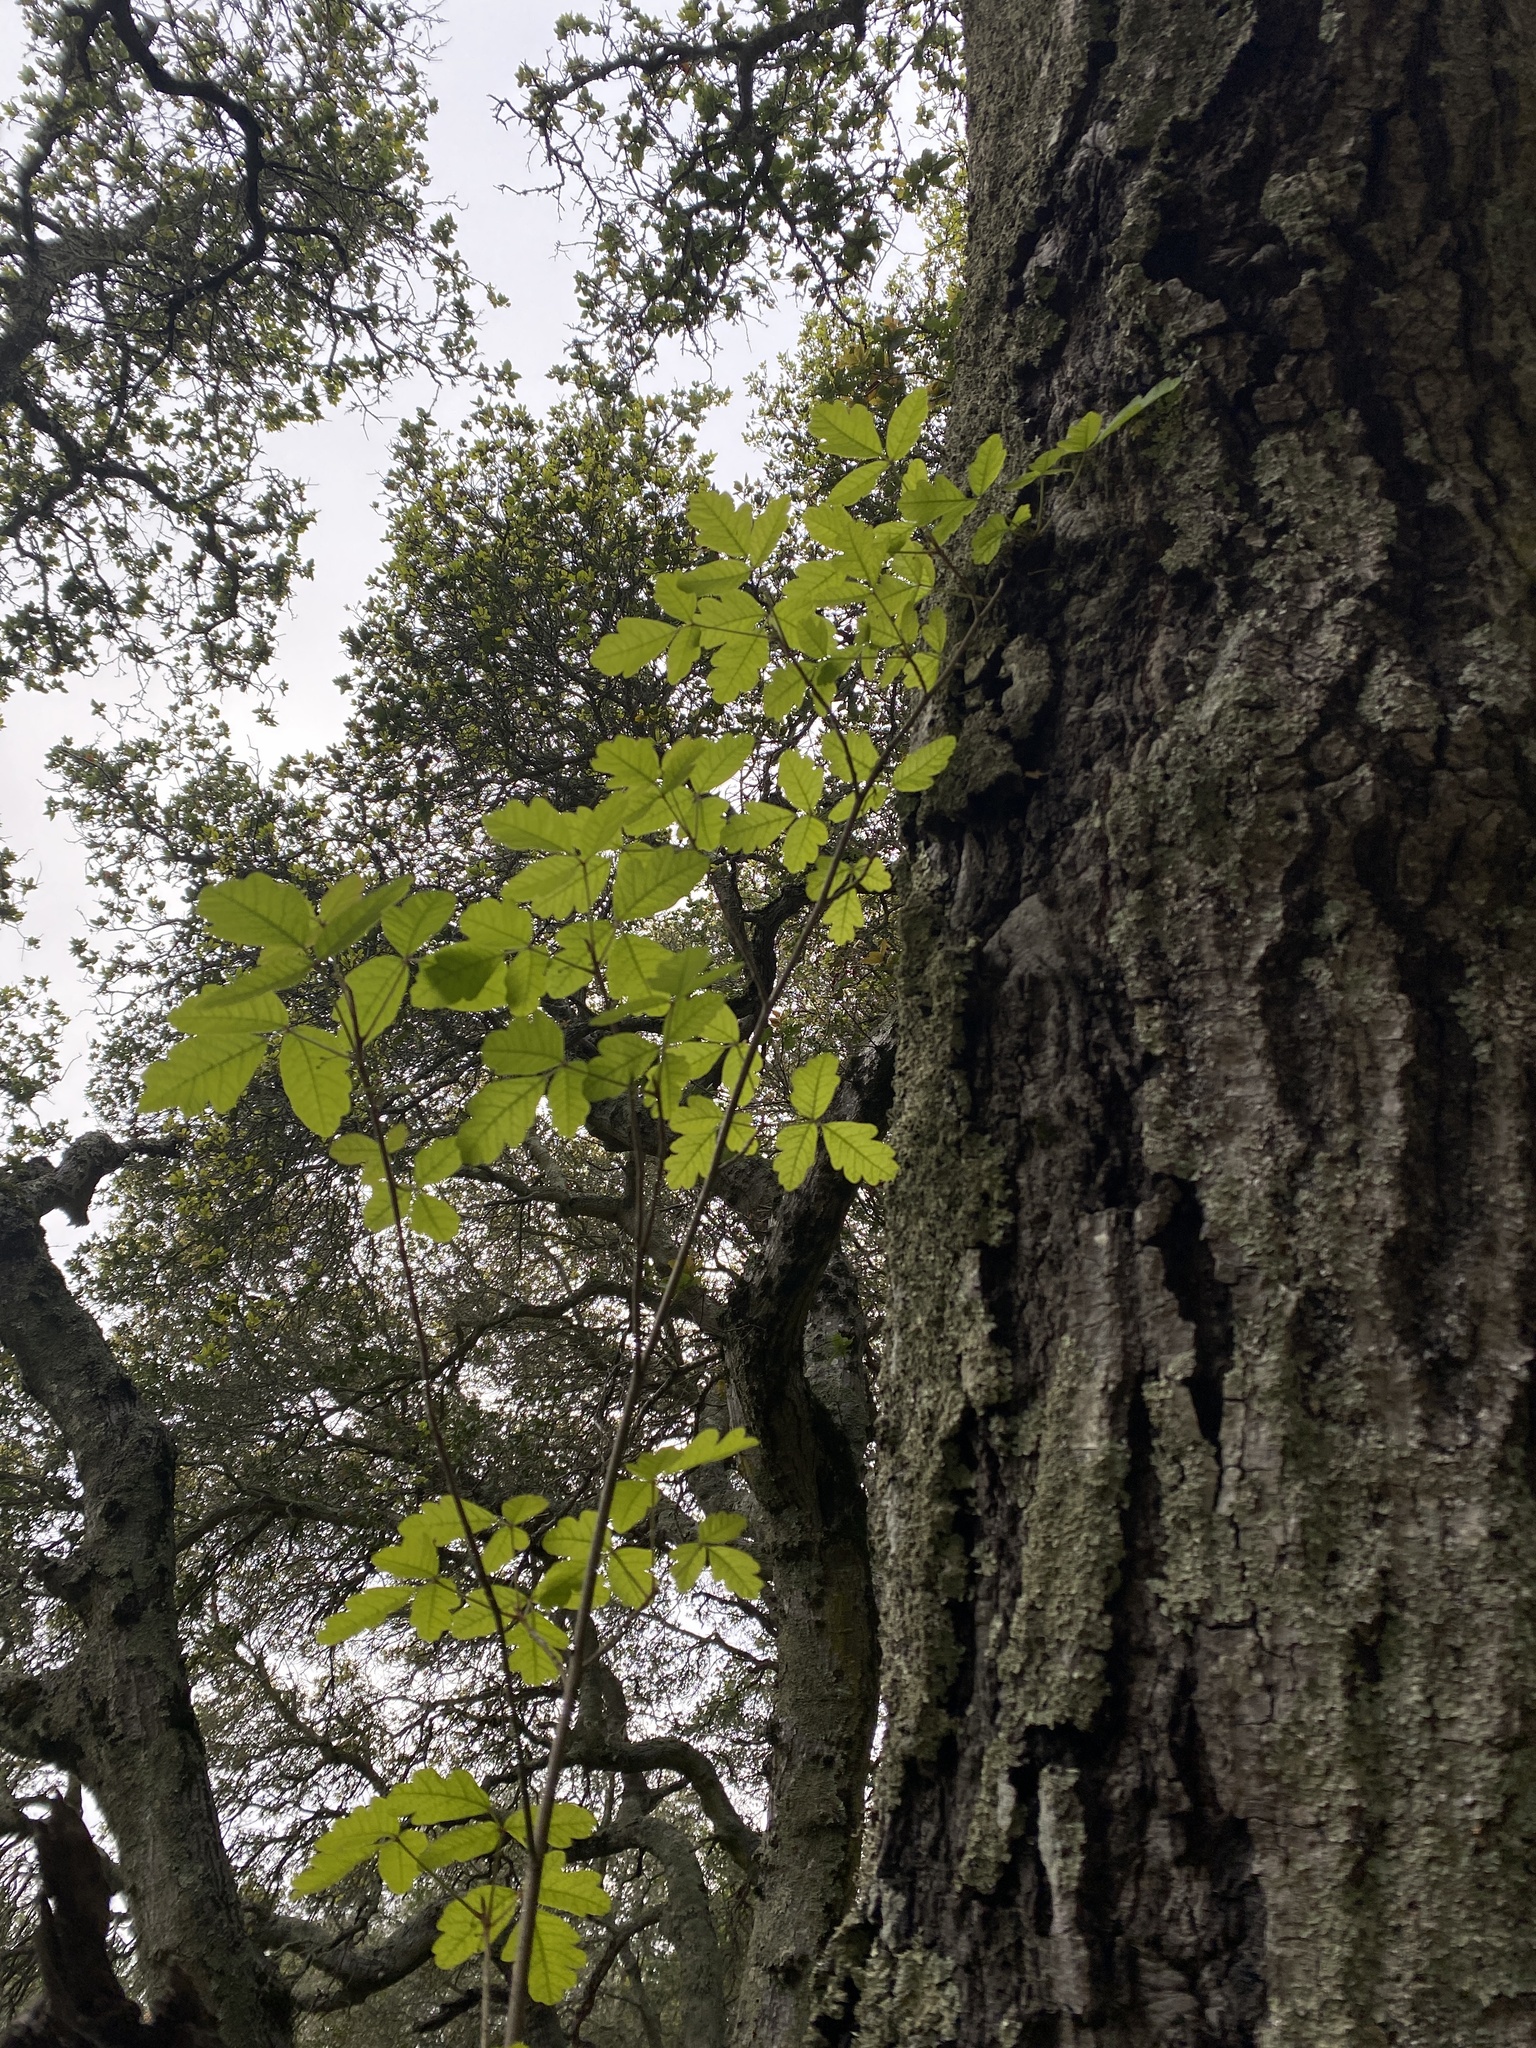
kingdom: Plantae
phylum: Tracheophyta
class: Magnoliopsida
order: Sapindales
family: Anacardiaceae
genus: Toxicodendron
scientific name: Toxicodendron diversilobum
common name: Pacific poison-oak
